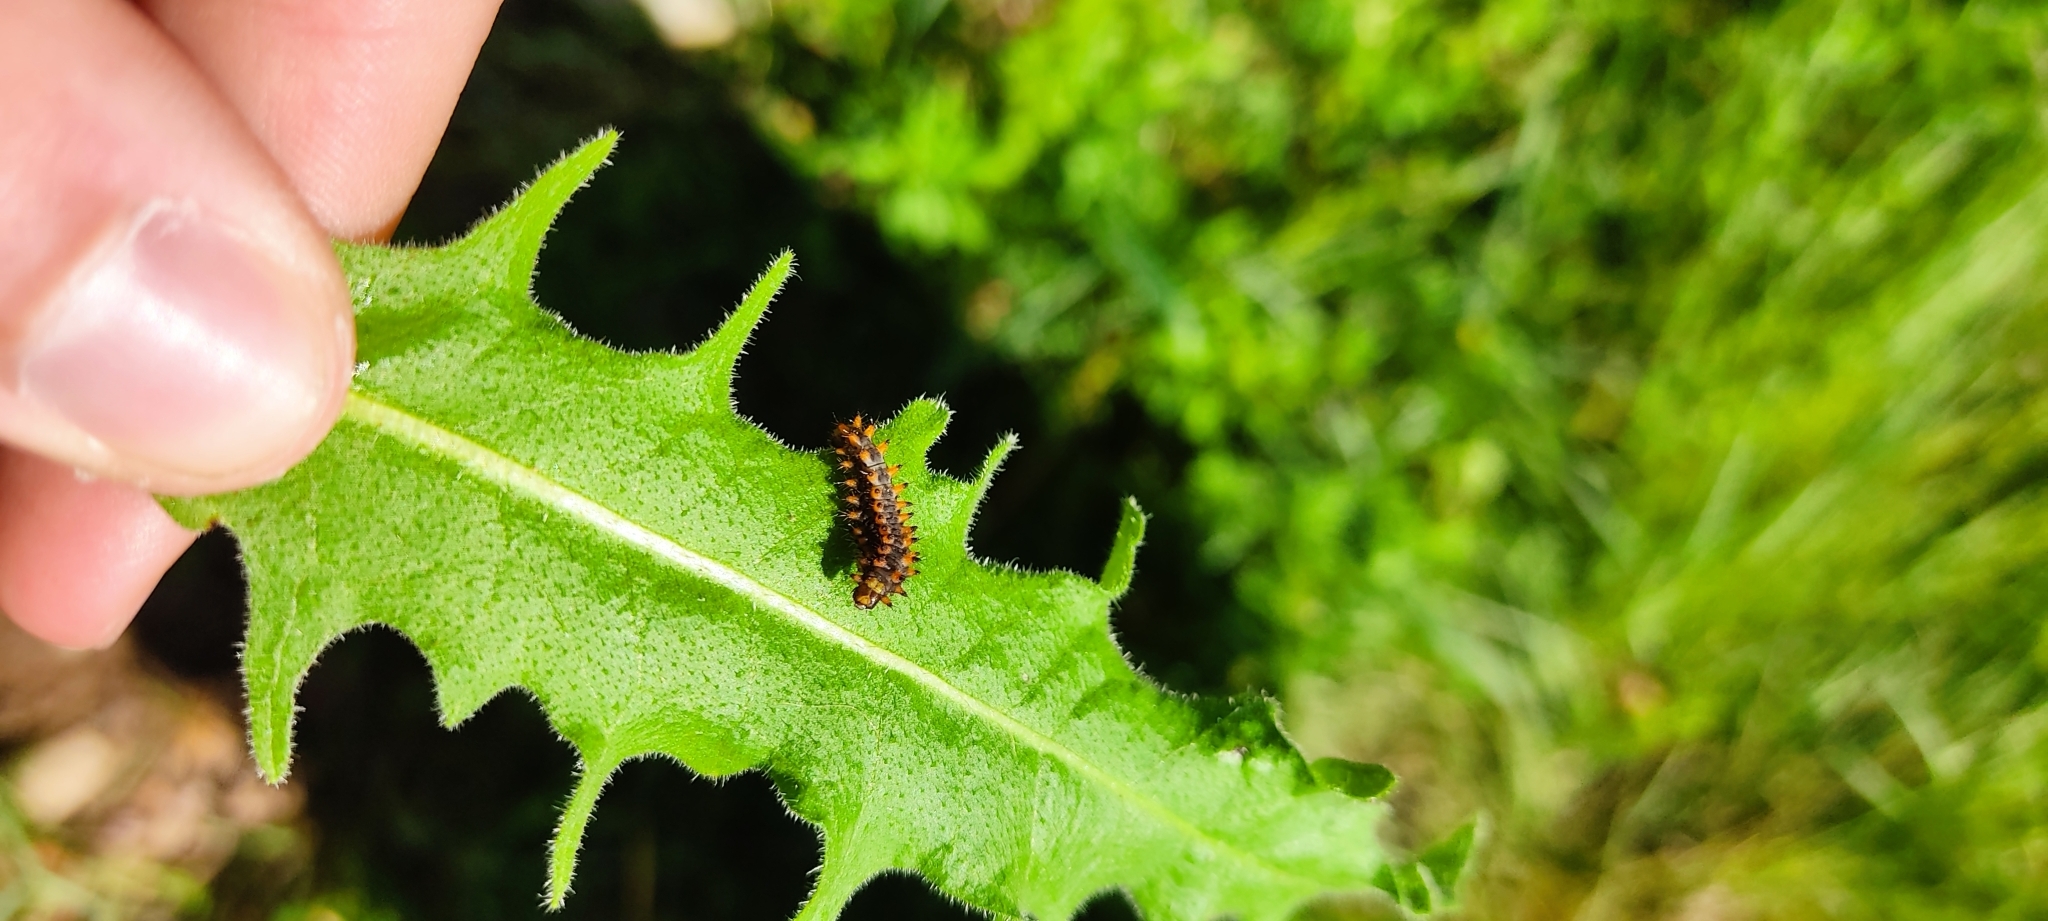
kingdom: Animalia
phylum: Arthropoda
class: Insecta
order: Lepidoptera
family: Papilionidae
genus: Zerynthia
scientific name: Zerynthia polyxena
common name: Southern festoon
